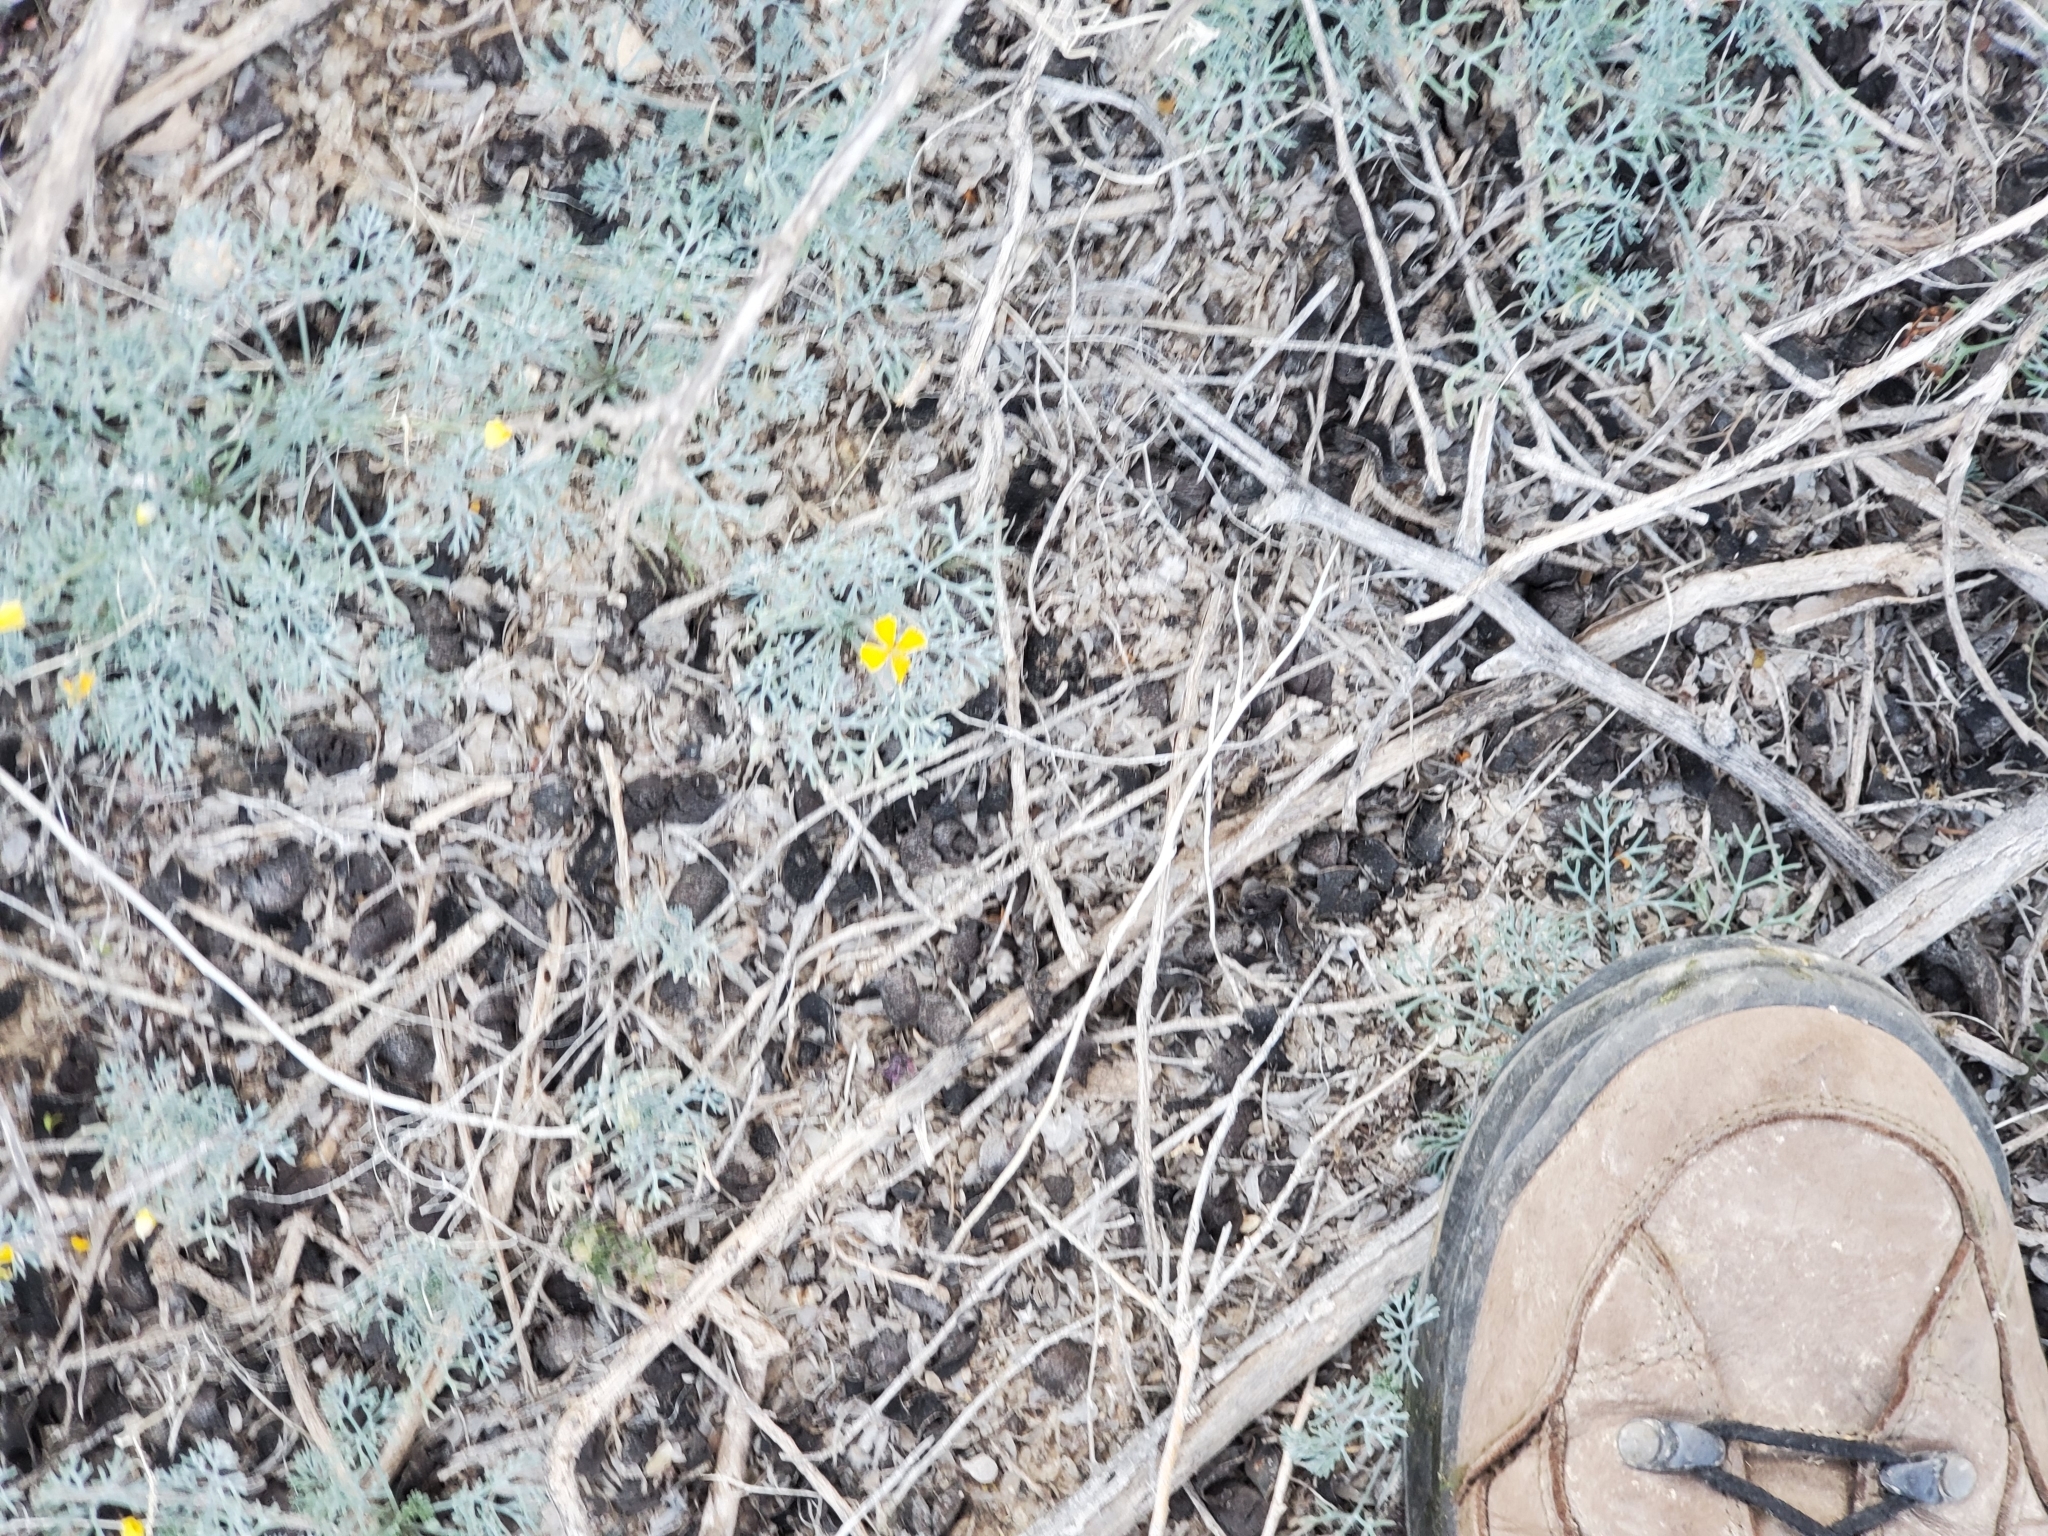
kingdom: Plantae
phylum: Tracheophyta
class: Magnoliopsida
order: Ranunculales
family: Papaveraceae
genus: Eschscholzia
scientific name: Eschscholzia minutiflora
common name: Small-flower california-poppy
